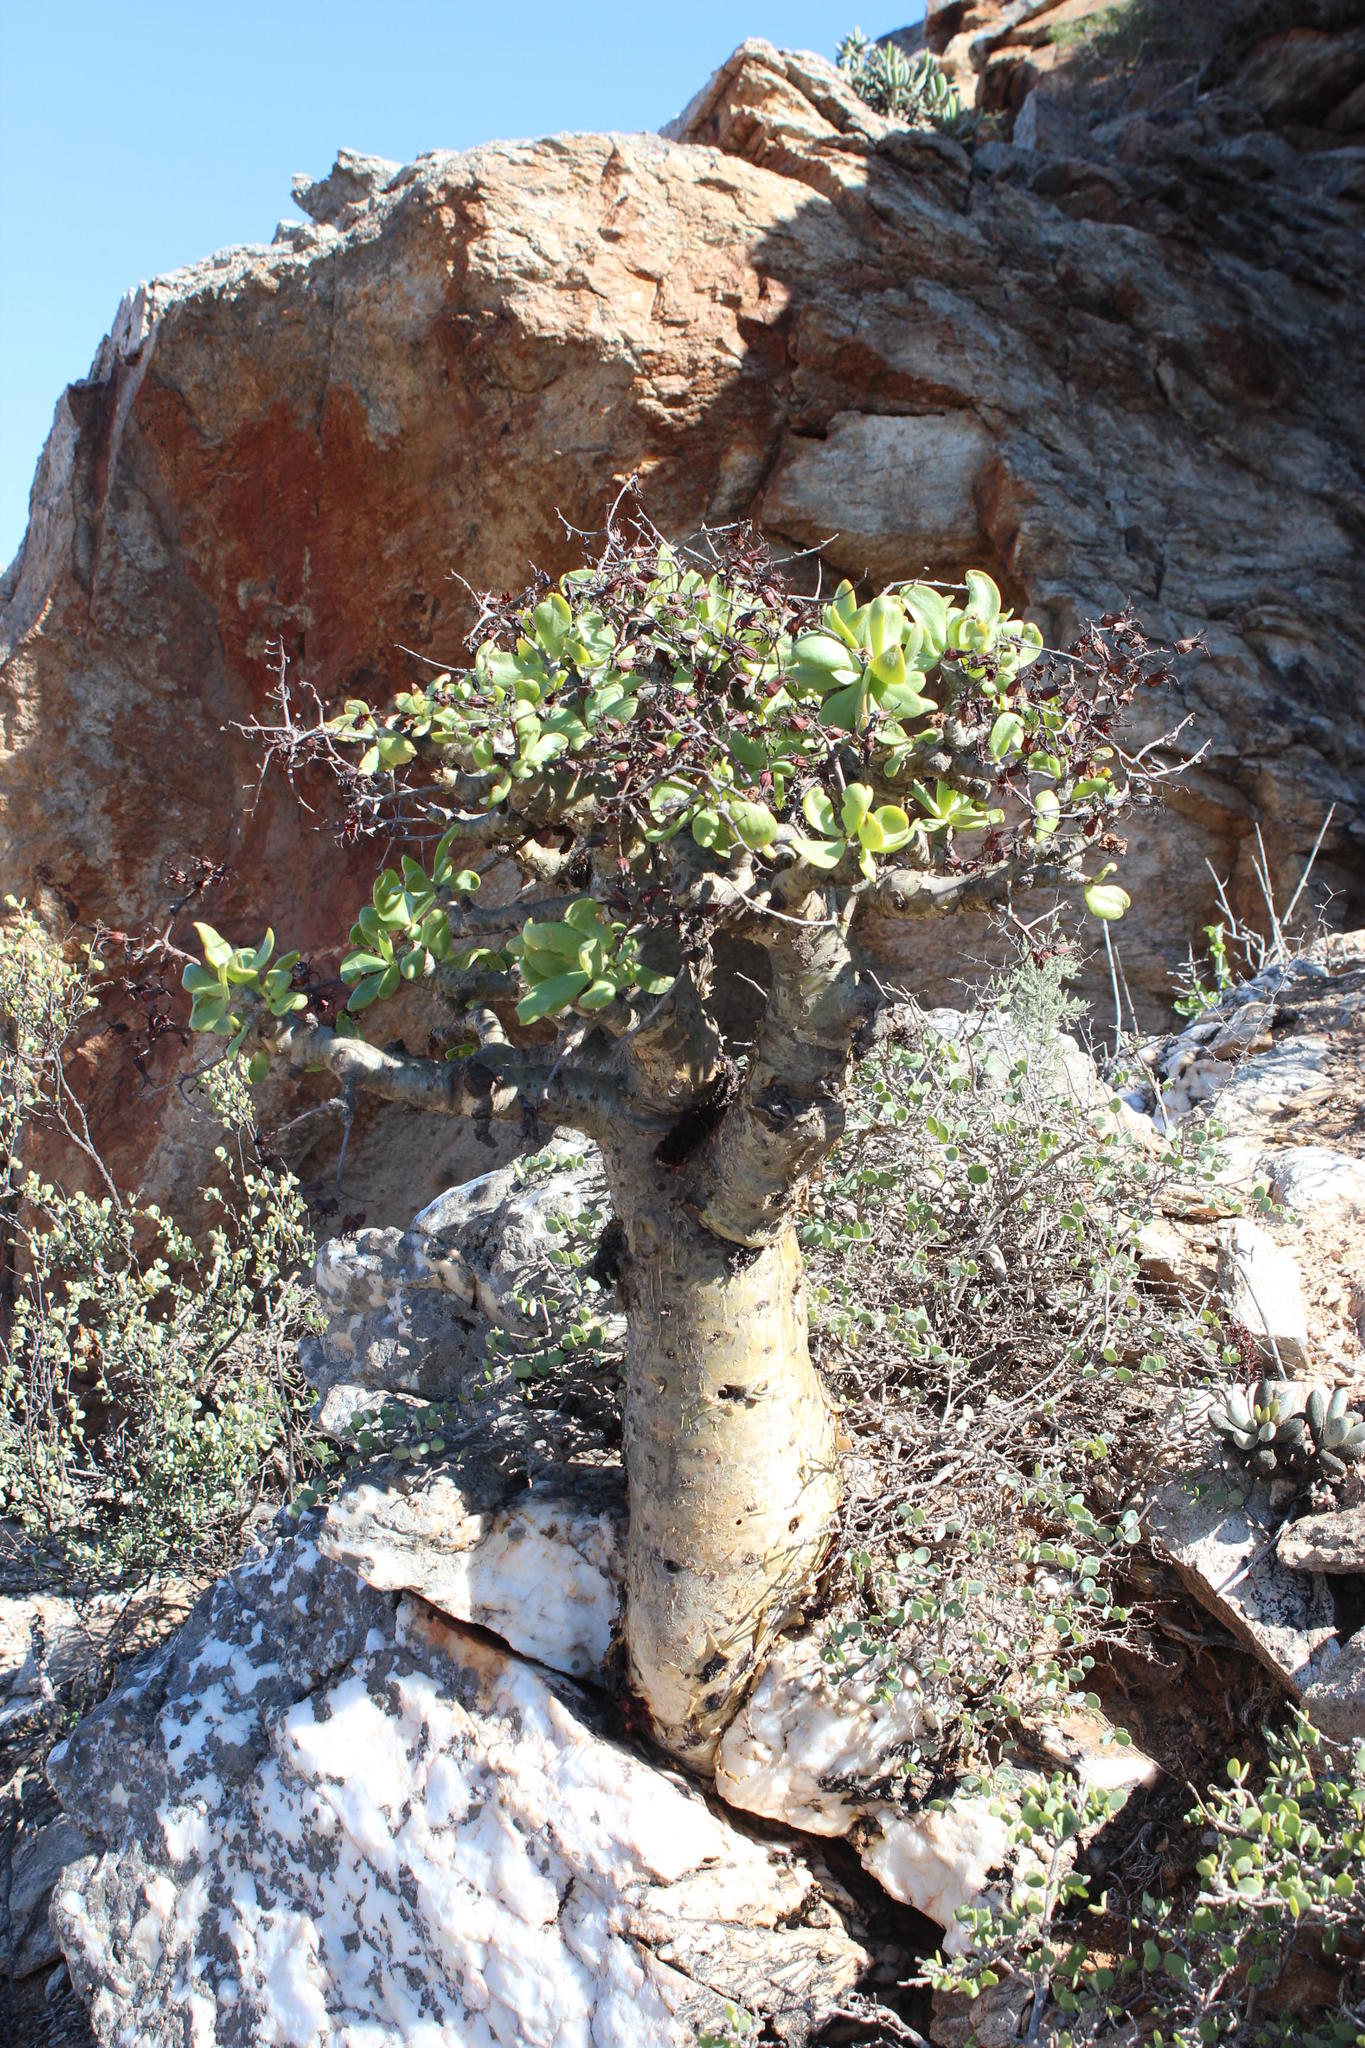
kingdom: Plantae
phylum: Tracheophyta
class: Magnoliopsida
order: Saxifragales
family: Crassulaceae
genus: Tylecodon
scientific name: Tylecodon paniculatus
